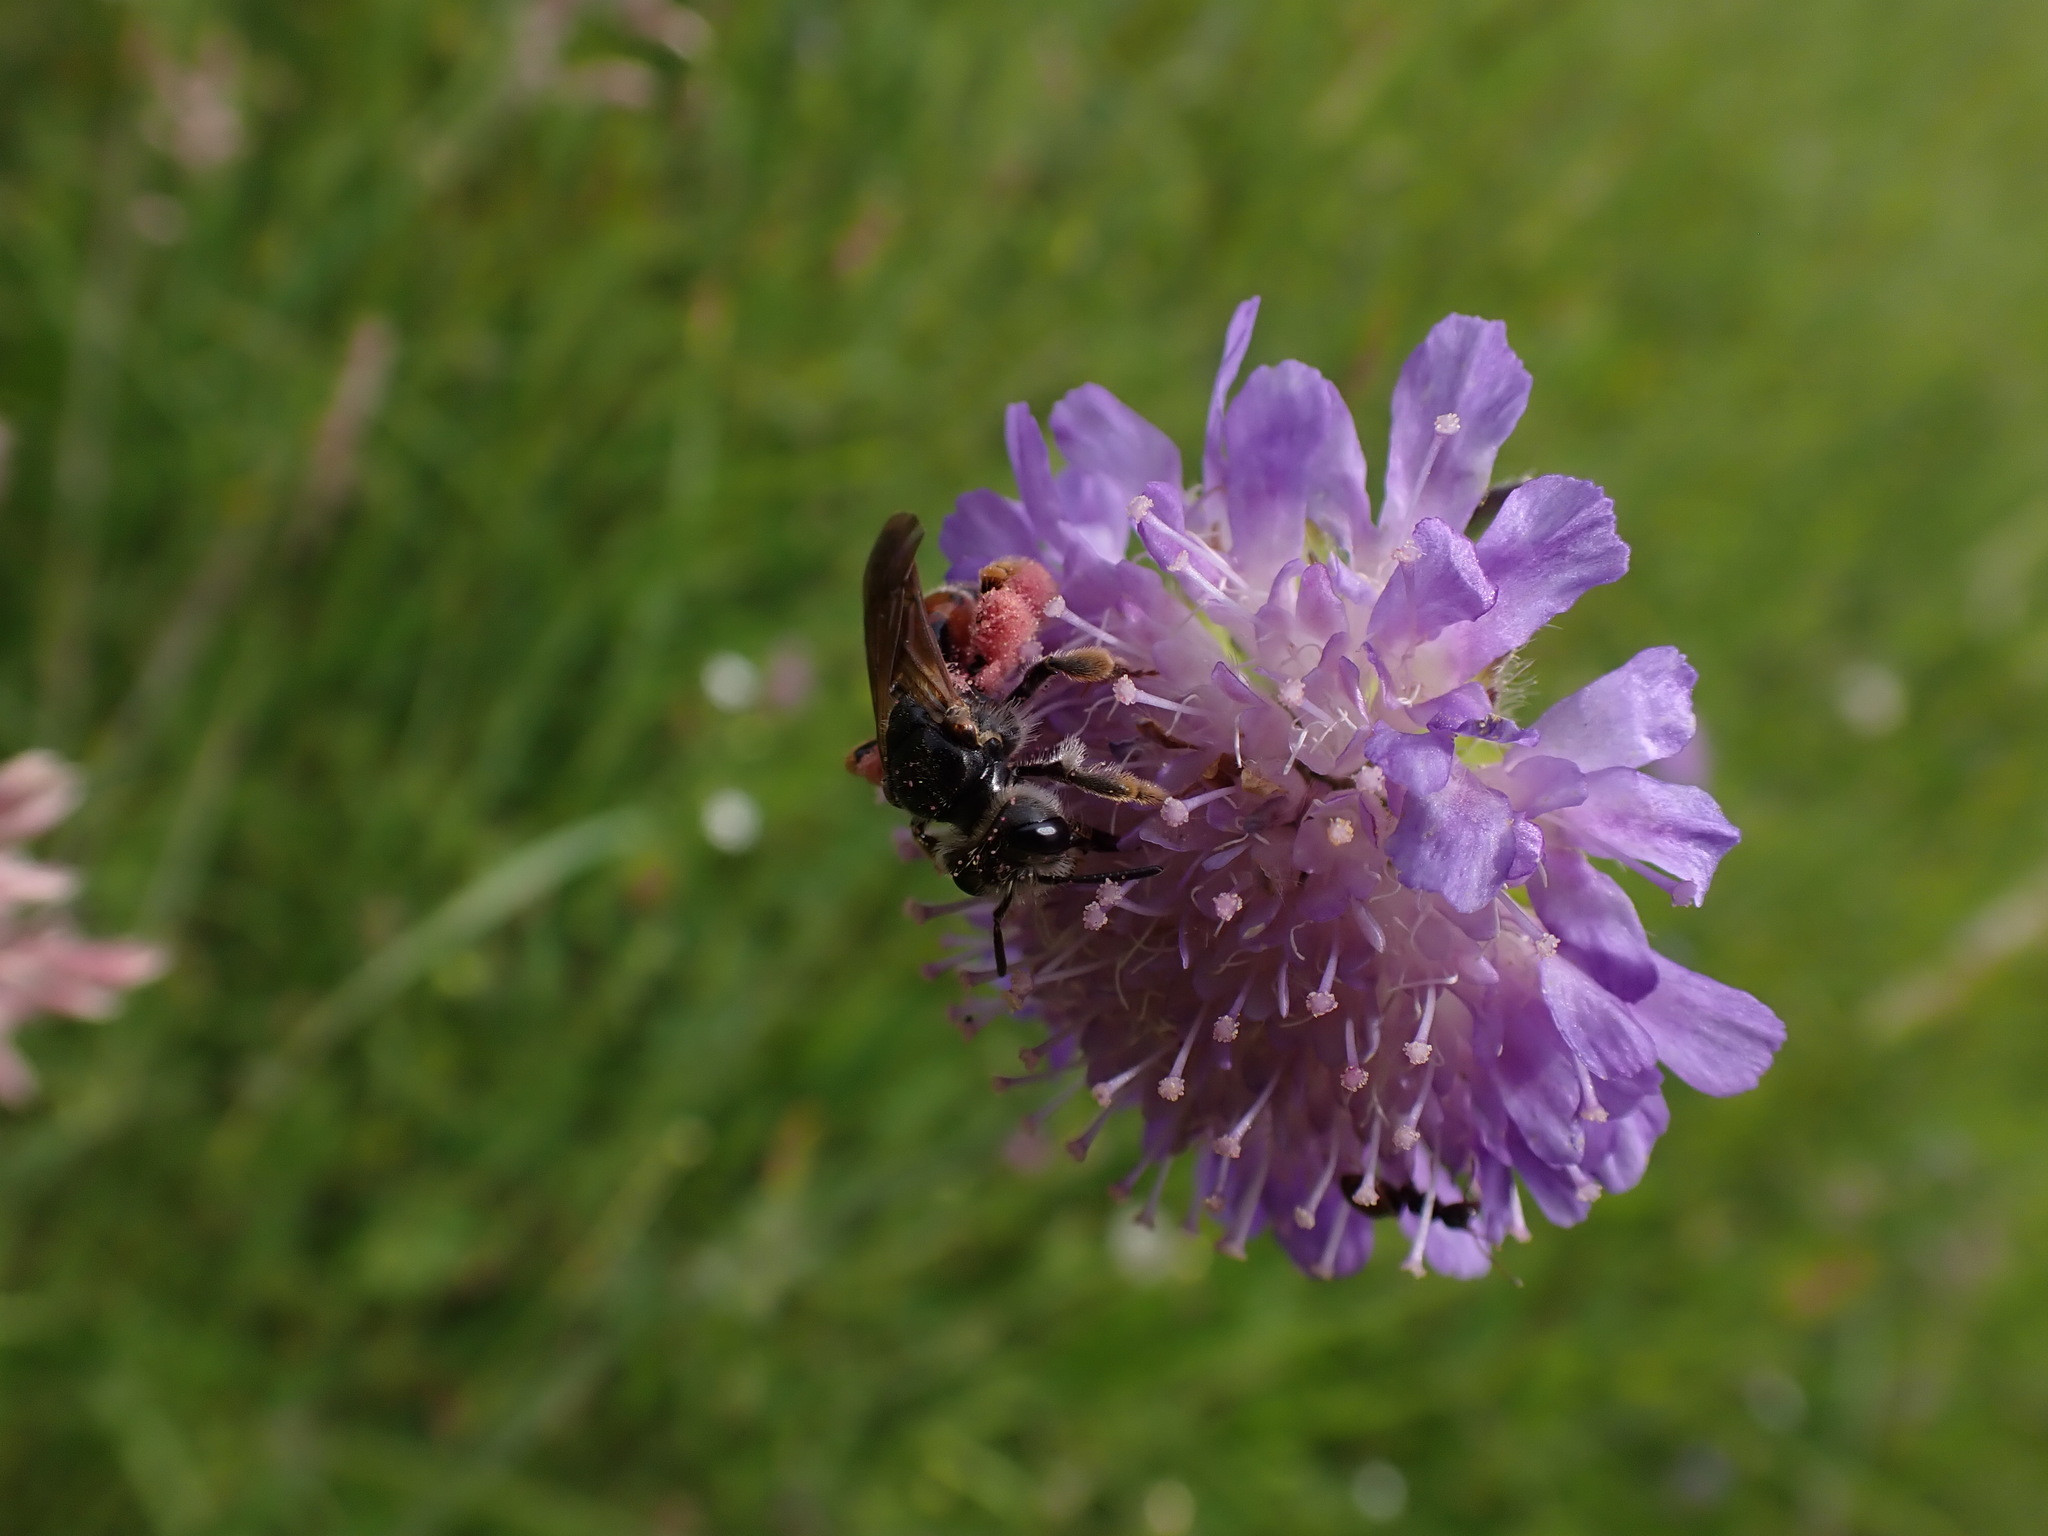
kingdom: Animalia
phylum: Arthropoda
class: Insecta
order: Hymenoptera
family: Andrenidae
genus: Andrena
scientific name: Andrena hattorfiana
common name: Large scabious mining bee
